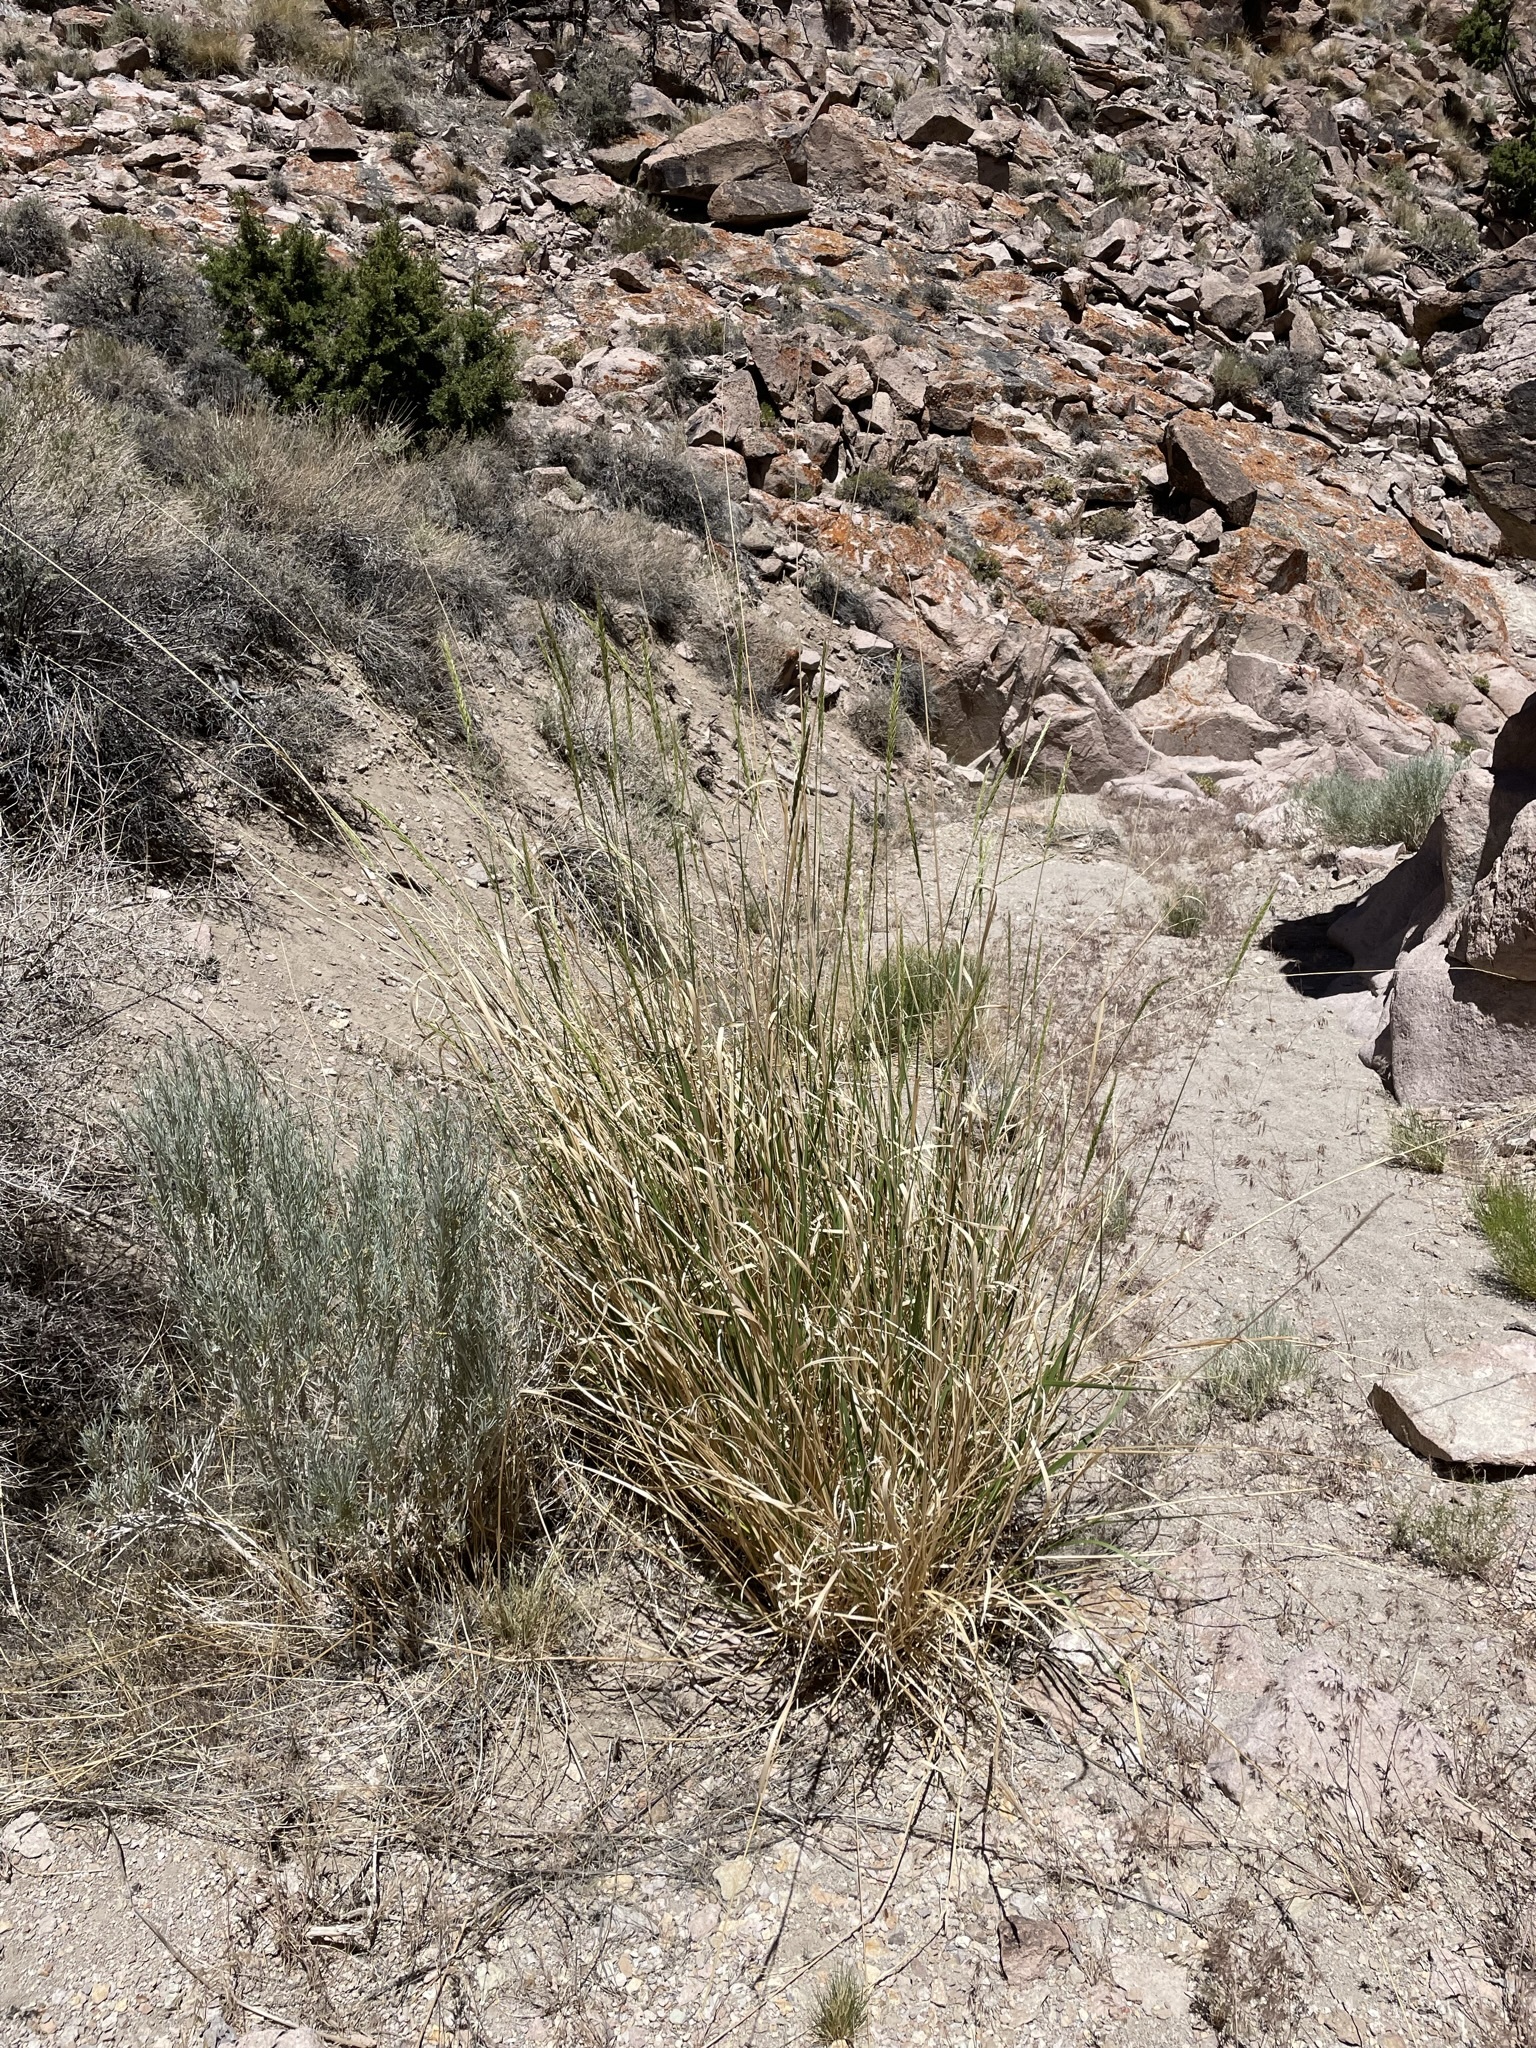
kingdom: Plantae
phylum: Tracheophyta
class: Liliopsida
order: Poales
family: Poaceae
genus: Leymus
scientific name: Leymus cinereus
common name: Basin wild rye
